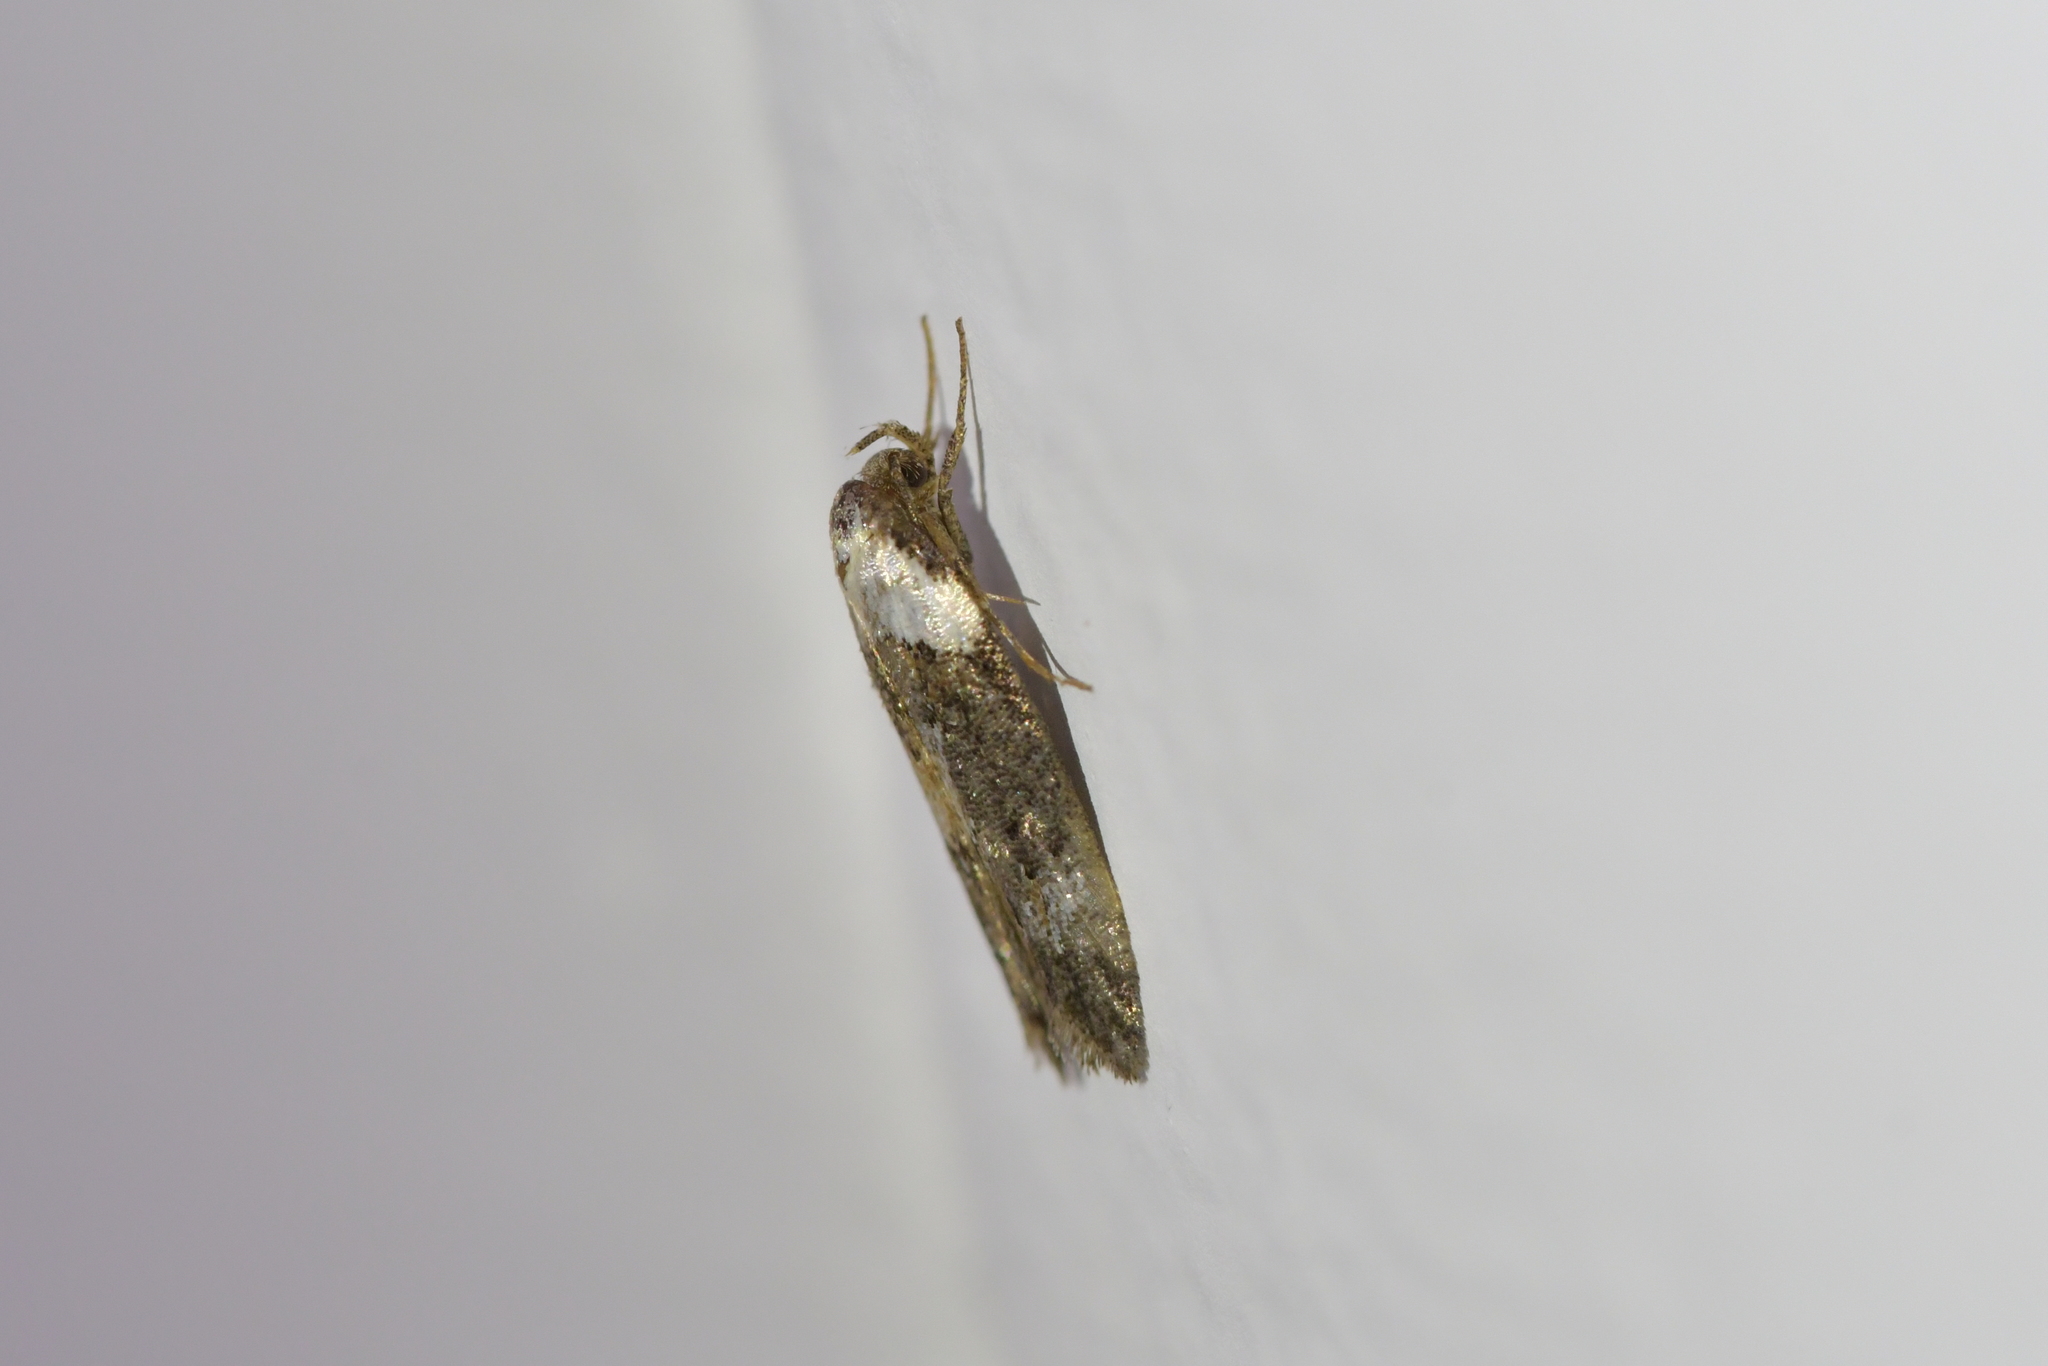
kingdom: Animalia
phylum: Arthropoda
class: Insecta
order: Lepidoptera
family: Oecophoridae
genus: Trachypepla
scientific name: Trachypepla conspicuella
